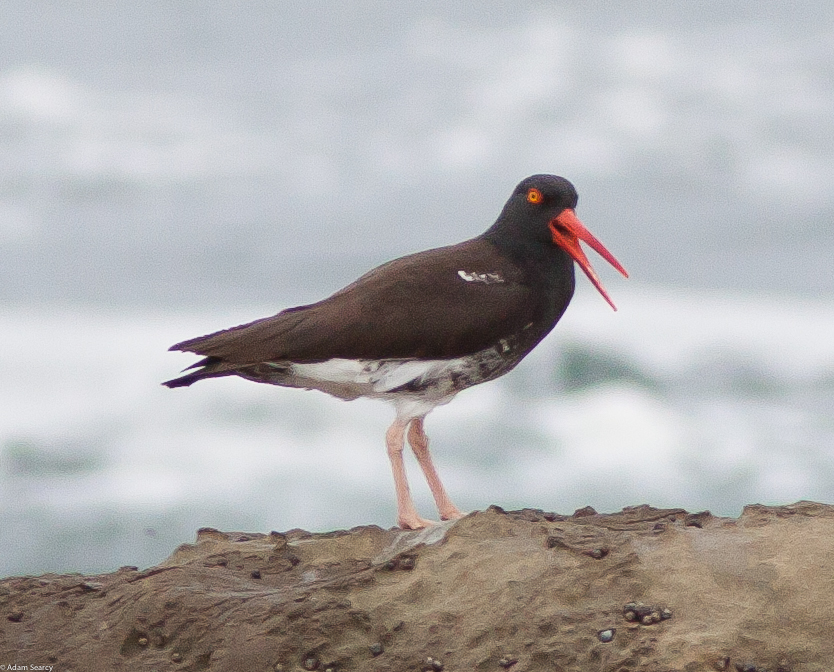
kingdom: Animalia
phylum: Chordata
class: Aves
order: Charadriiformes
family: Haematopodidae
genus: Haematopus
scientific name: Haematopus
